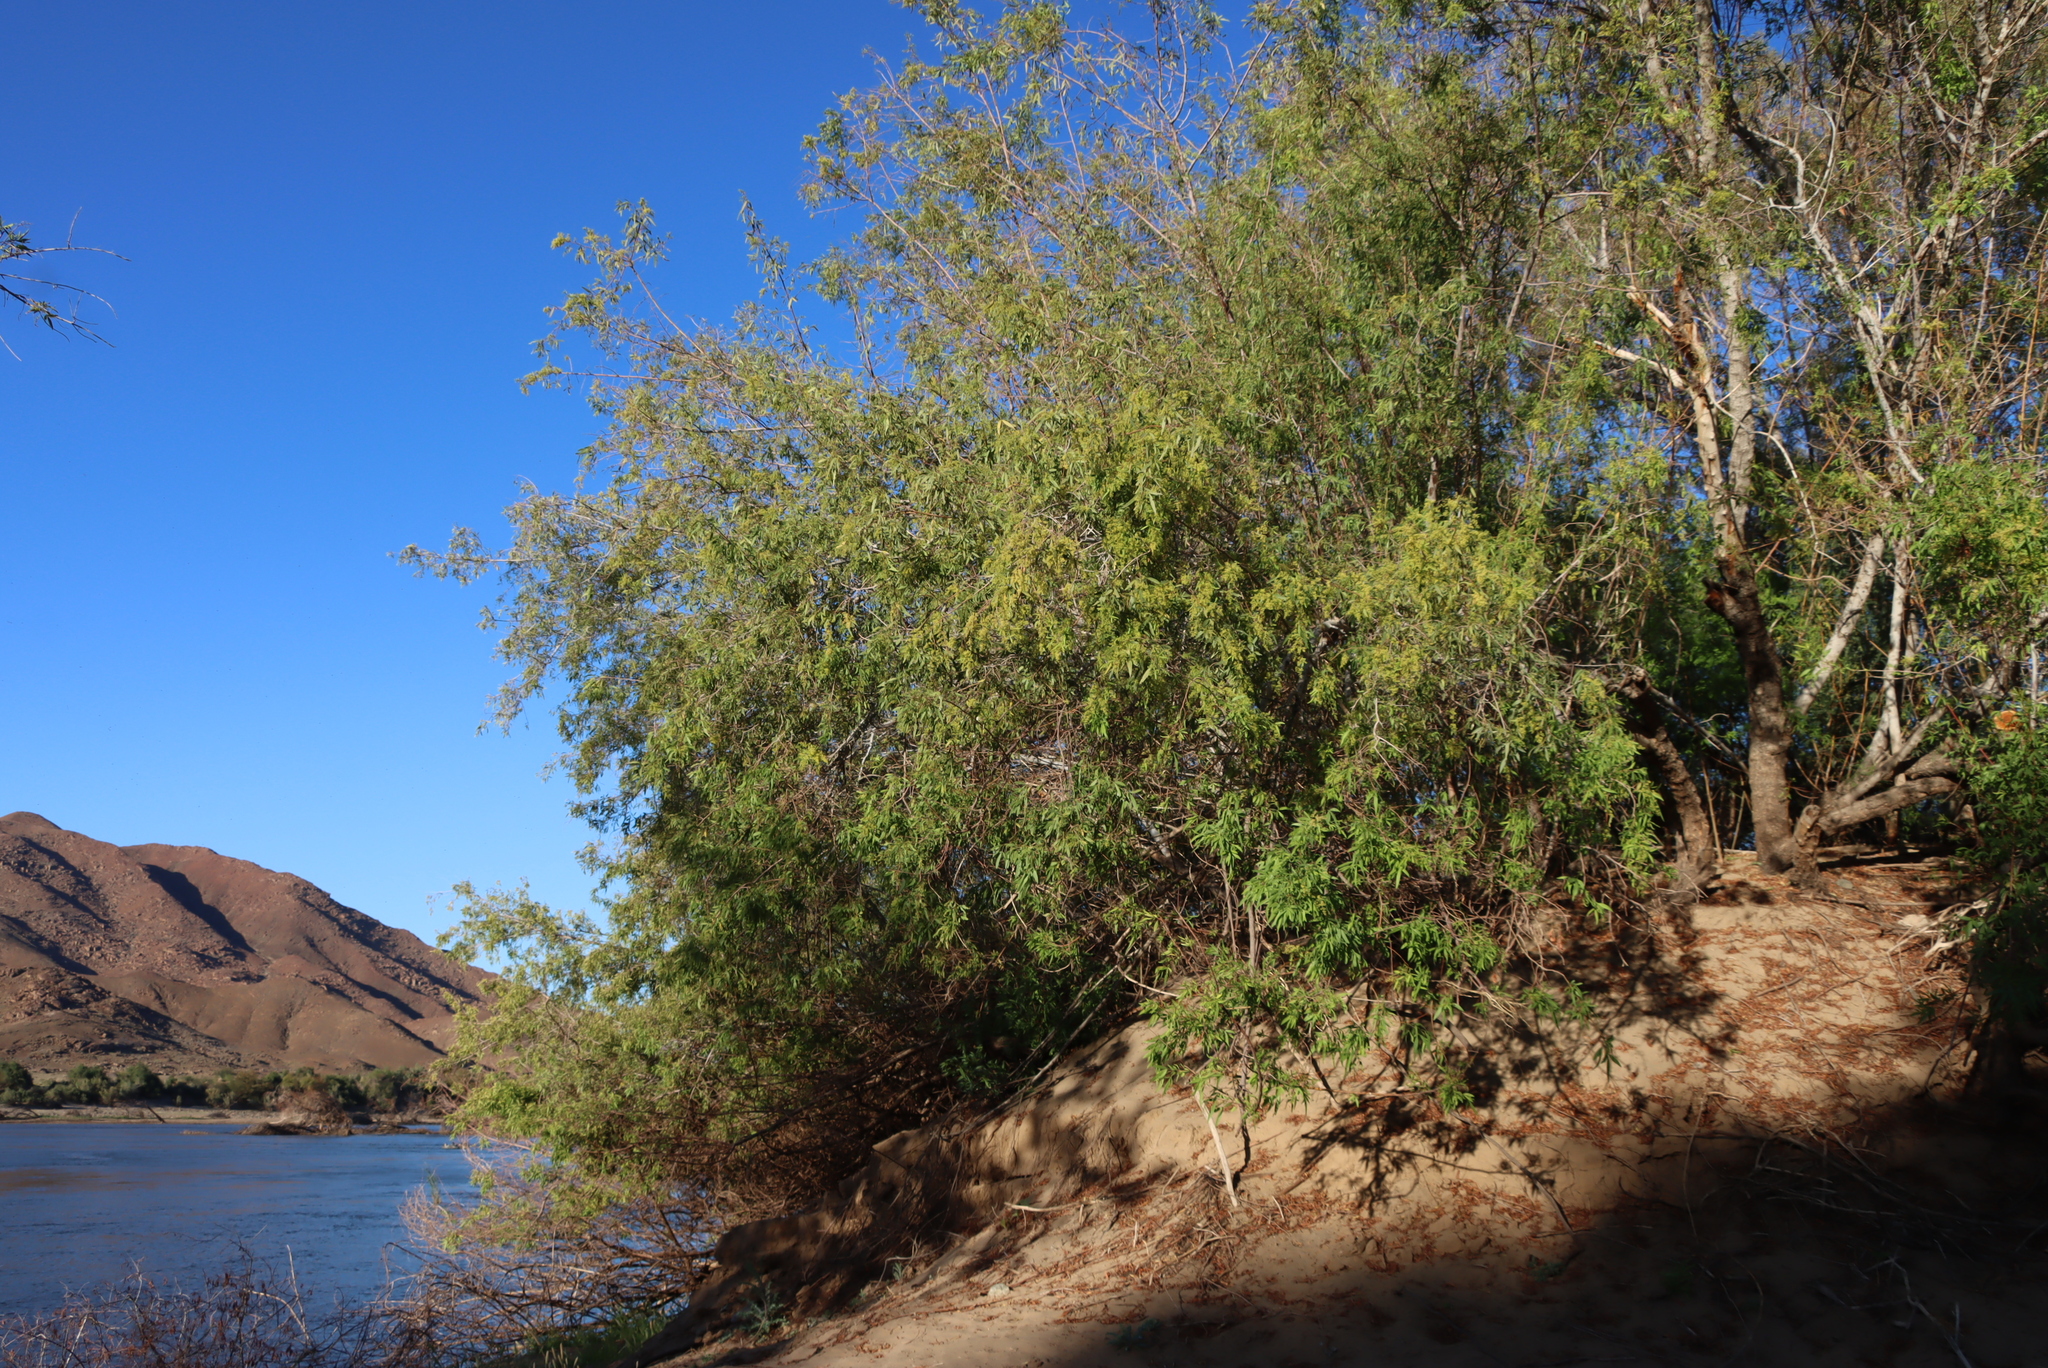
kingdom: Plantae
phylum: Tracheophyta
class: Magnoliopsida
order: Sapindales
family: Anacardiaceae
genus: Searsia
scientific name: Searsia pendulina
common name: White karee
